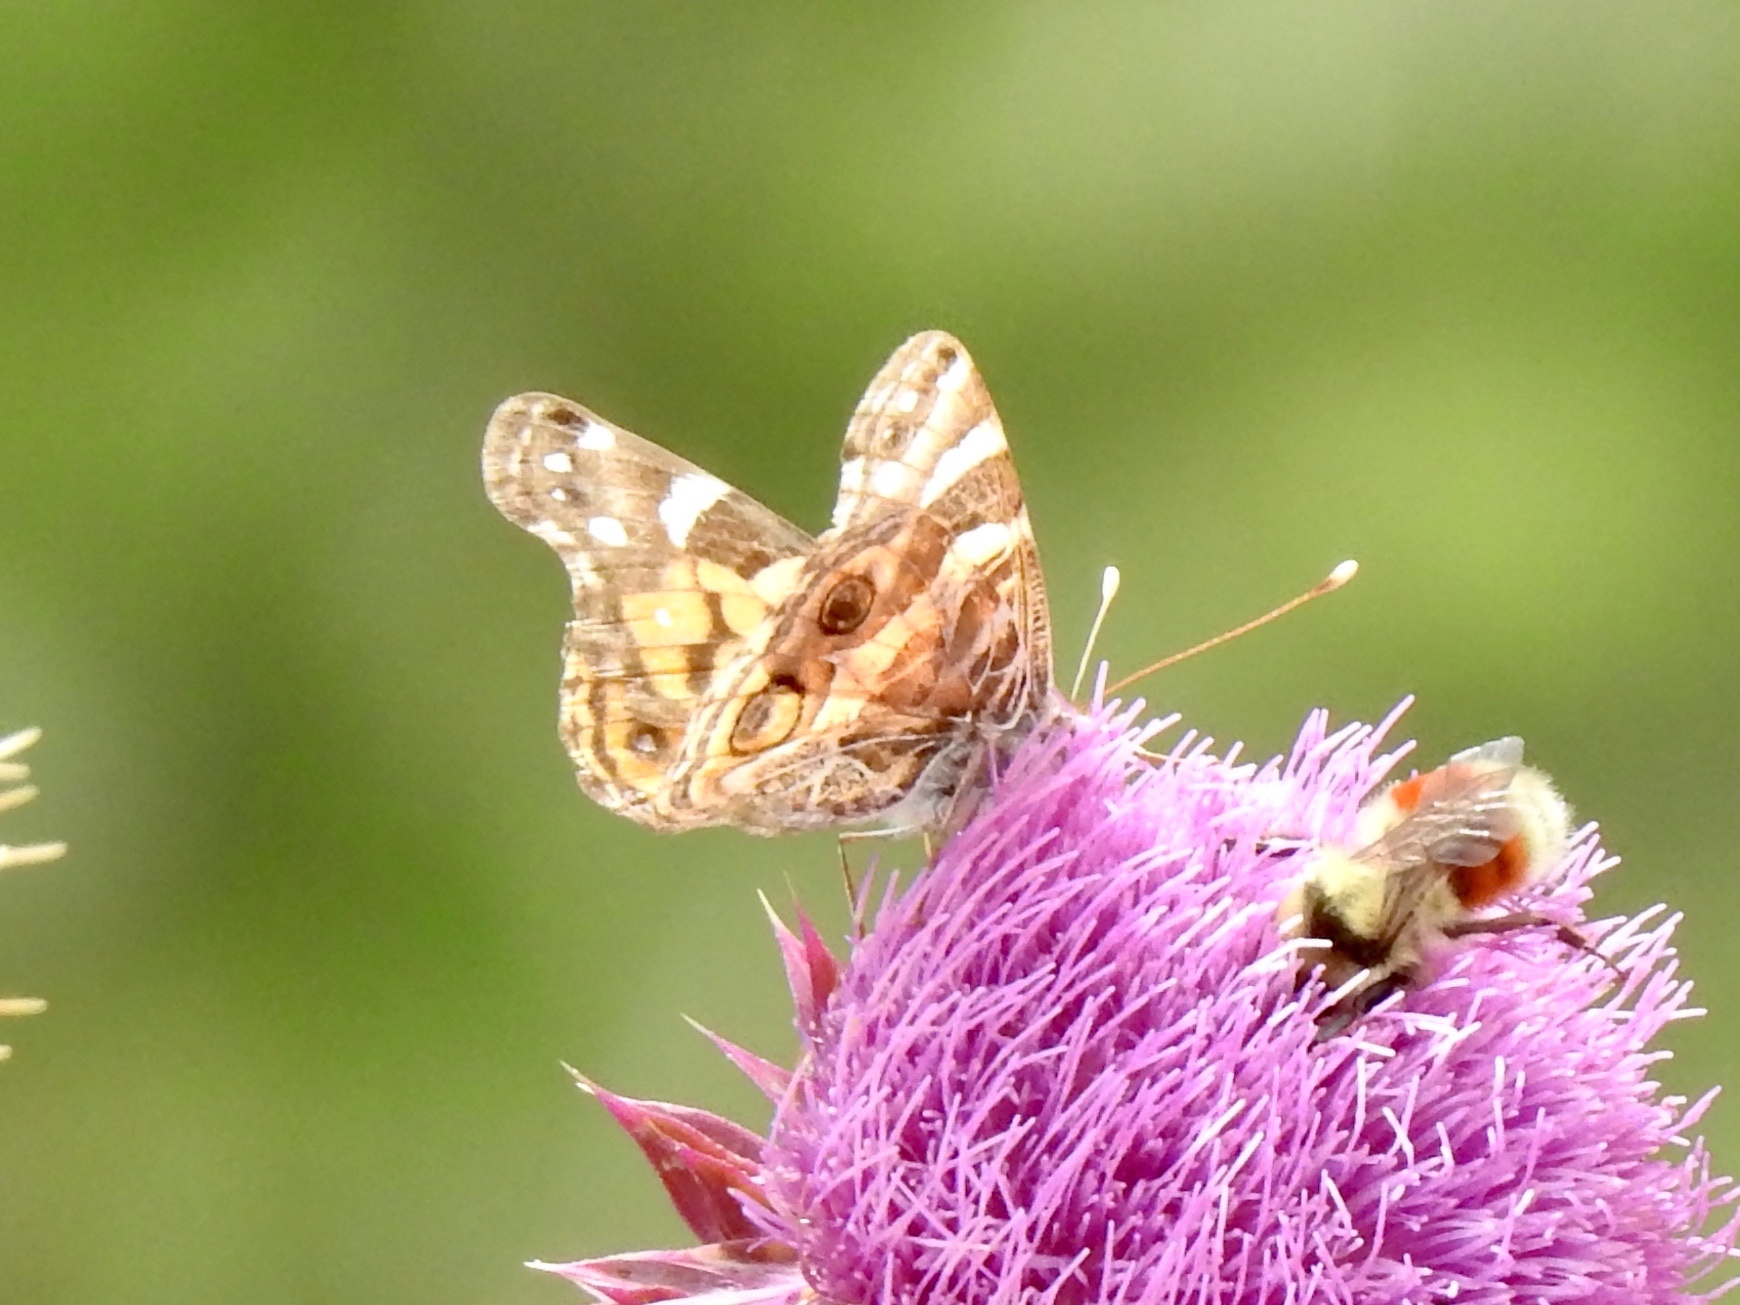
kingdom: Animalia
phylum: Arthropoda
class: Insecta
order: Lepidoptera
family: Nymphalidae
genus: Vanessa
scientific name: Vanessa virginiensis
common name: American lady
